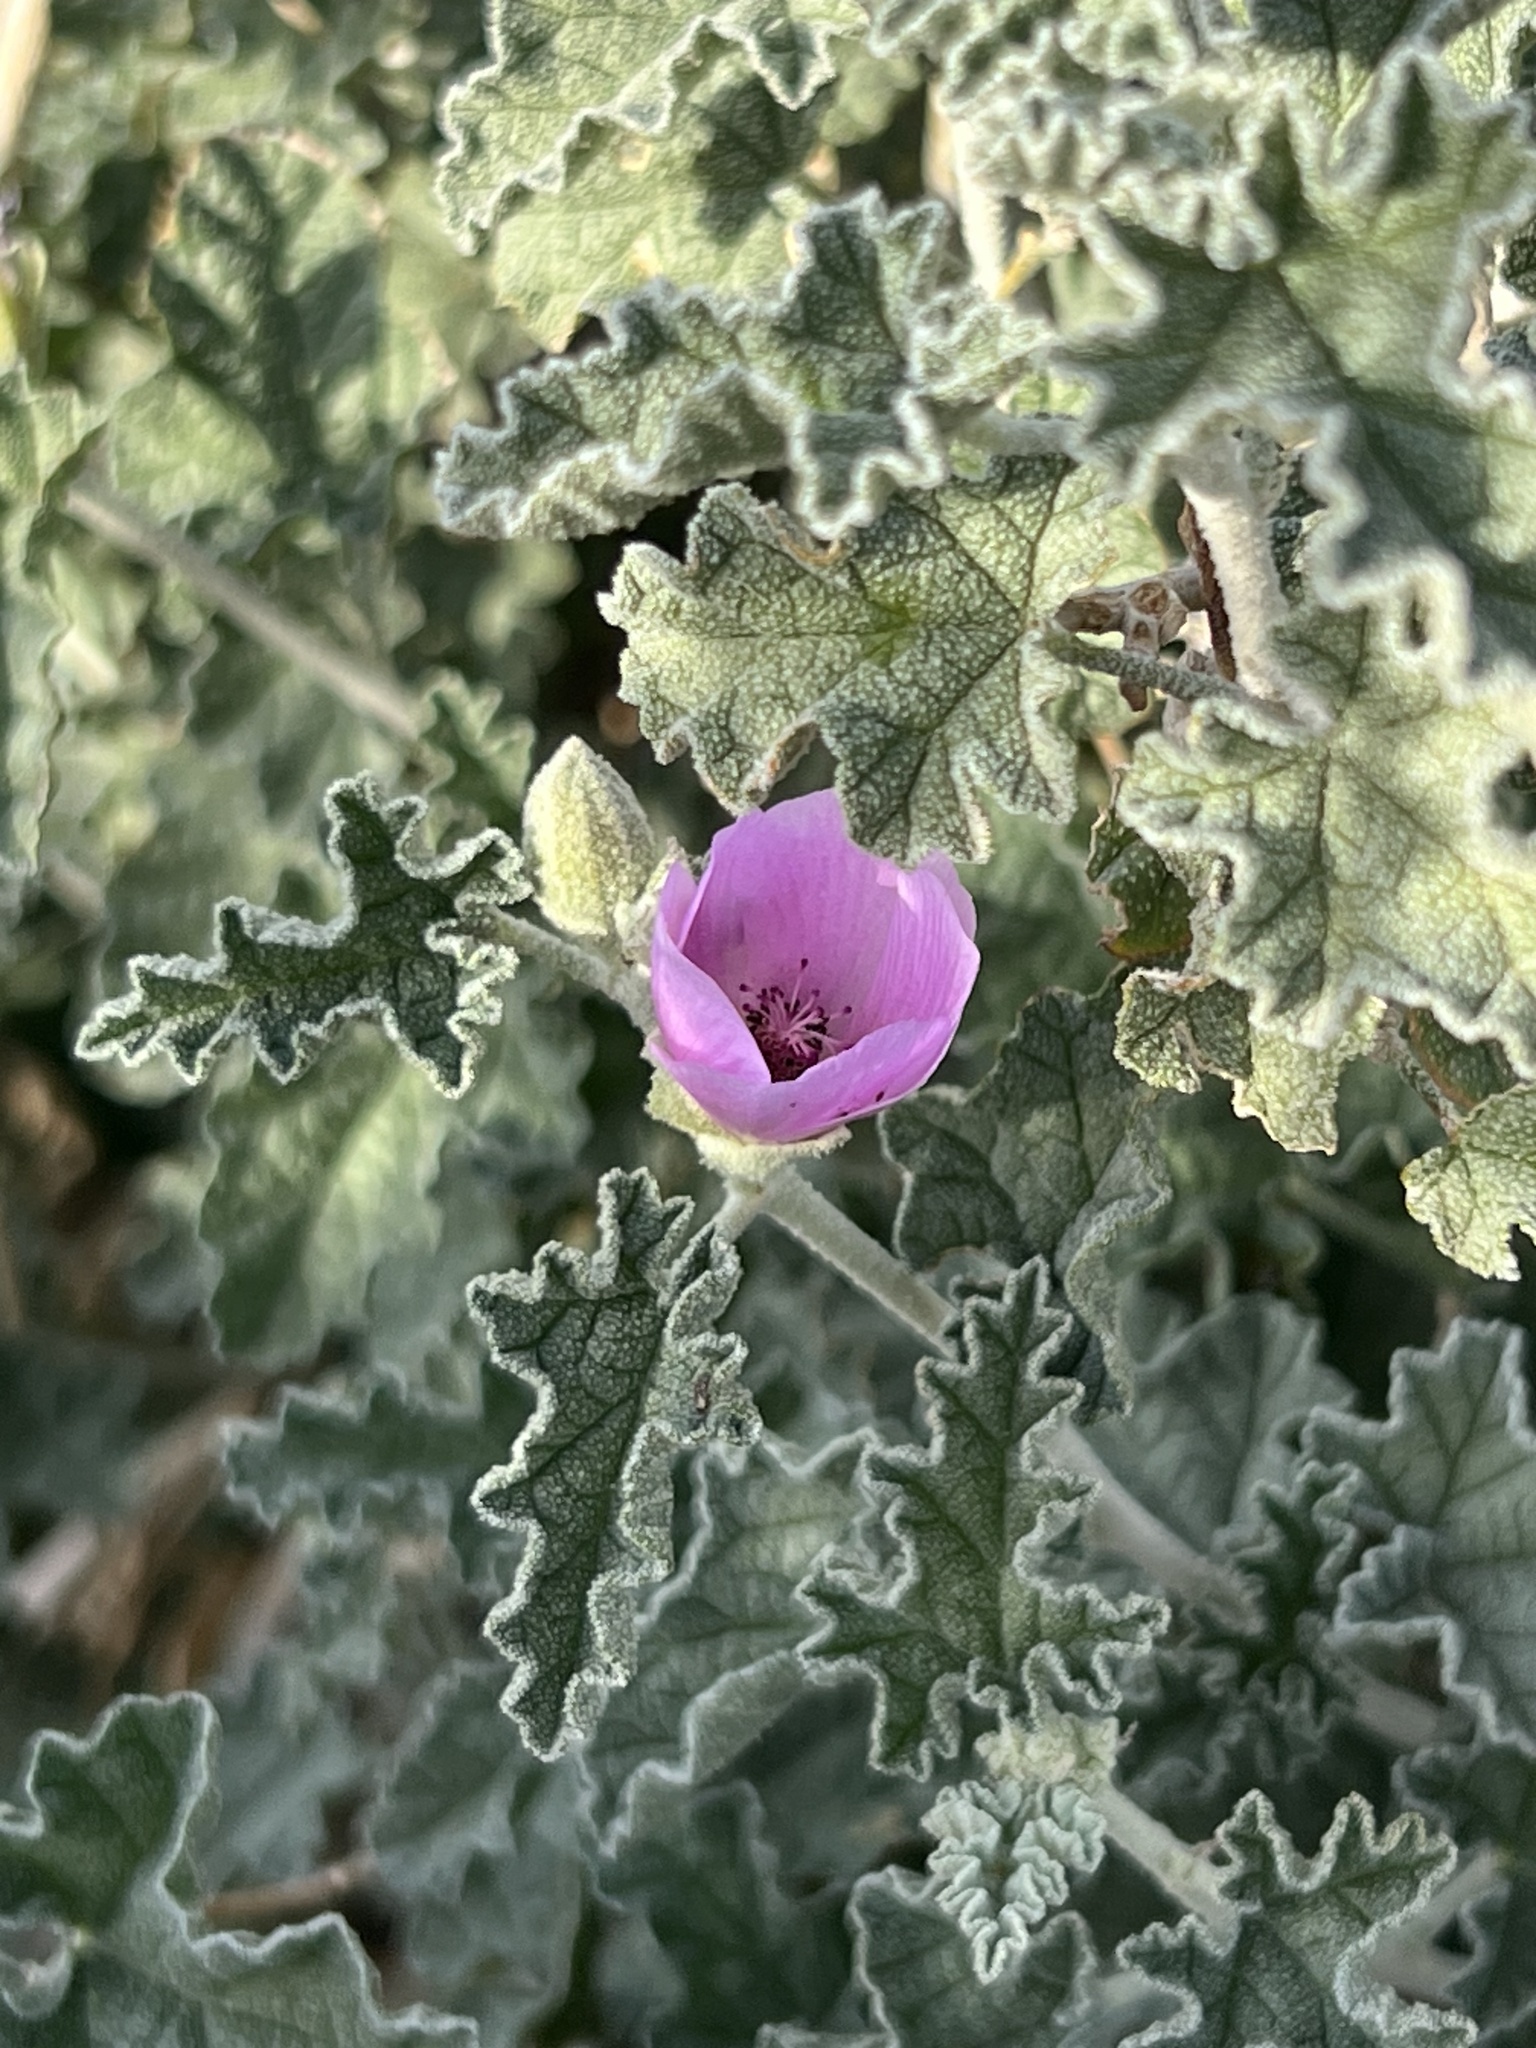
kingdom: Plantae
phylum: Tracheophyta
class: Magnoliopsida
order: Malvales
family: Malvaceae
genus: Sphaeralcea
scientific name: Sphaeralcea ambigua
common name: Apricot globe-mallow
